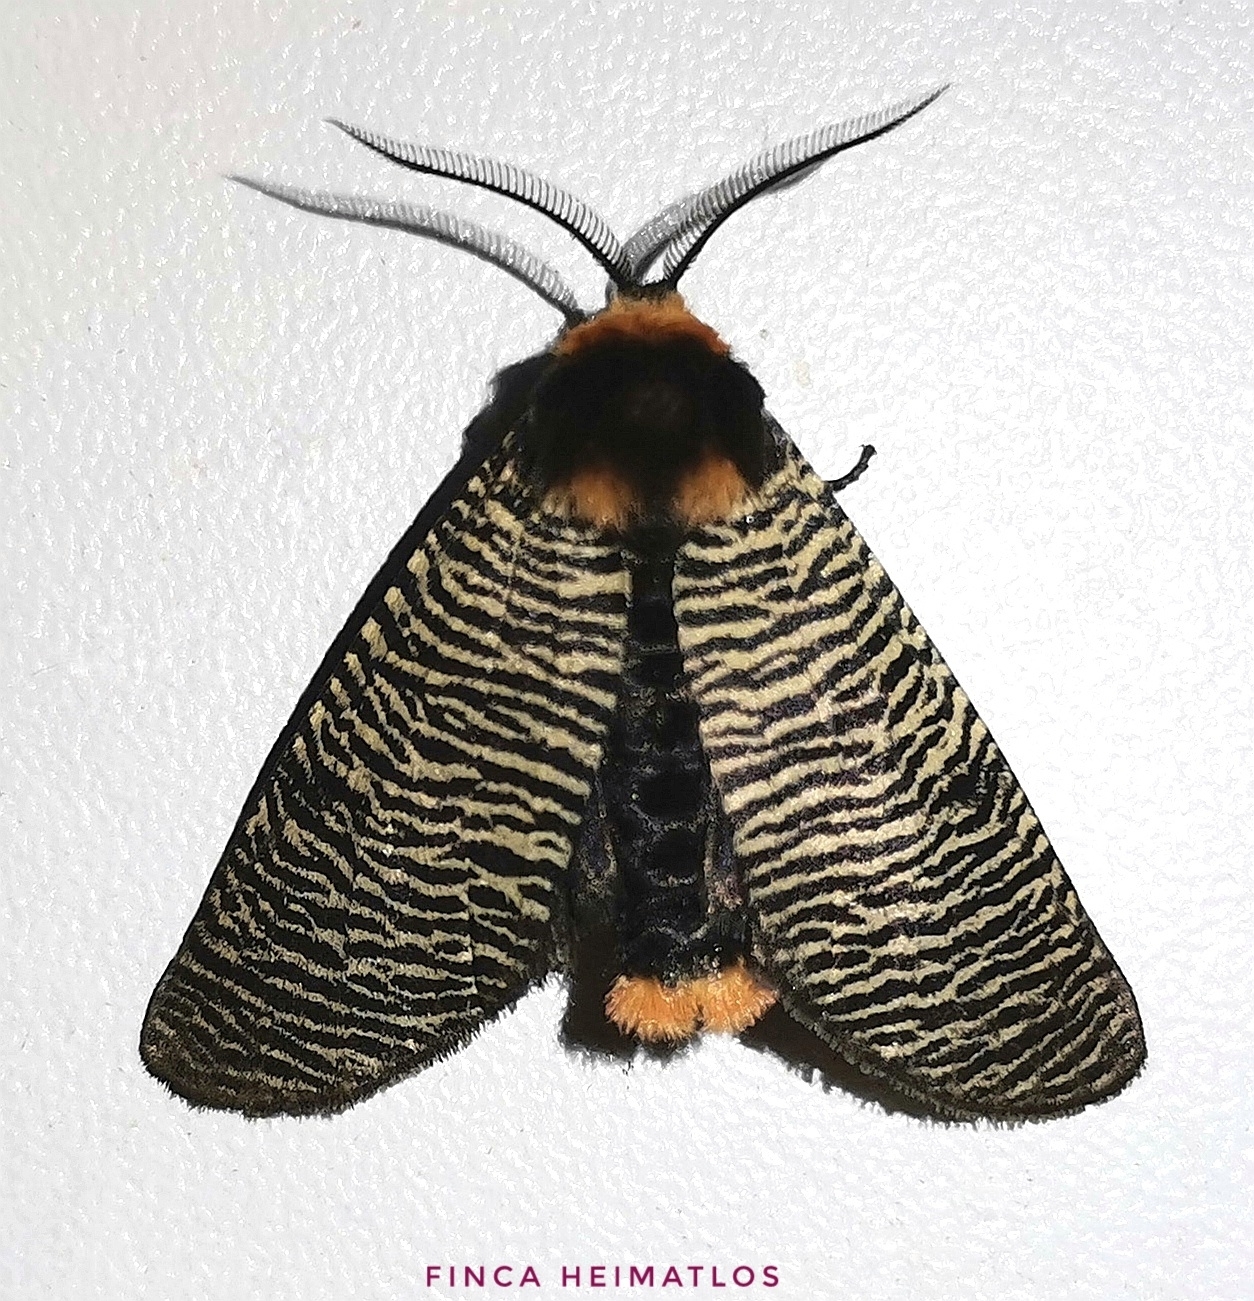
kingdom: Animalia
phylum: Arthropoda
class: Insecta
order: Lepidoptera
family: Erebidae
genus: Graphelysia
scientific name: Graphelysia strigillata
